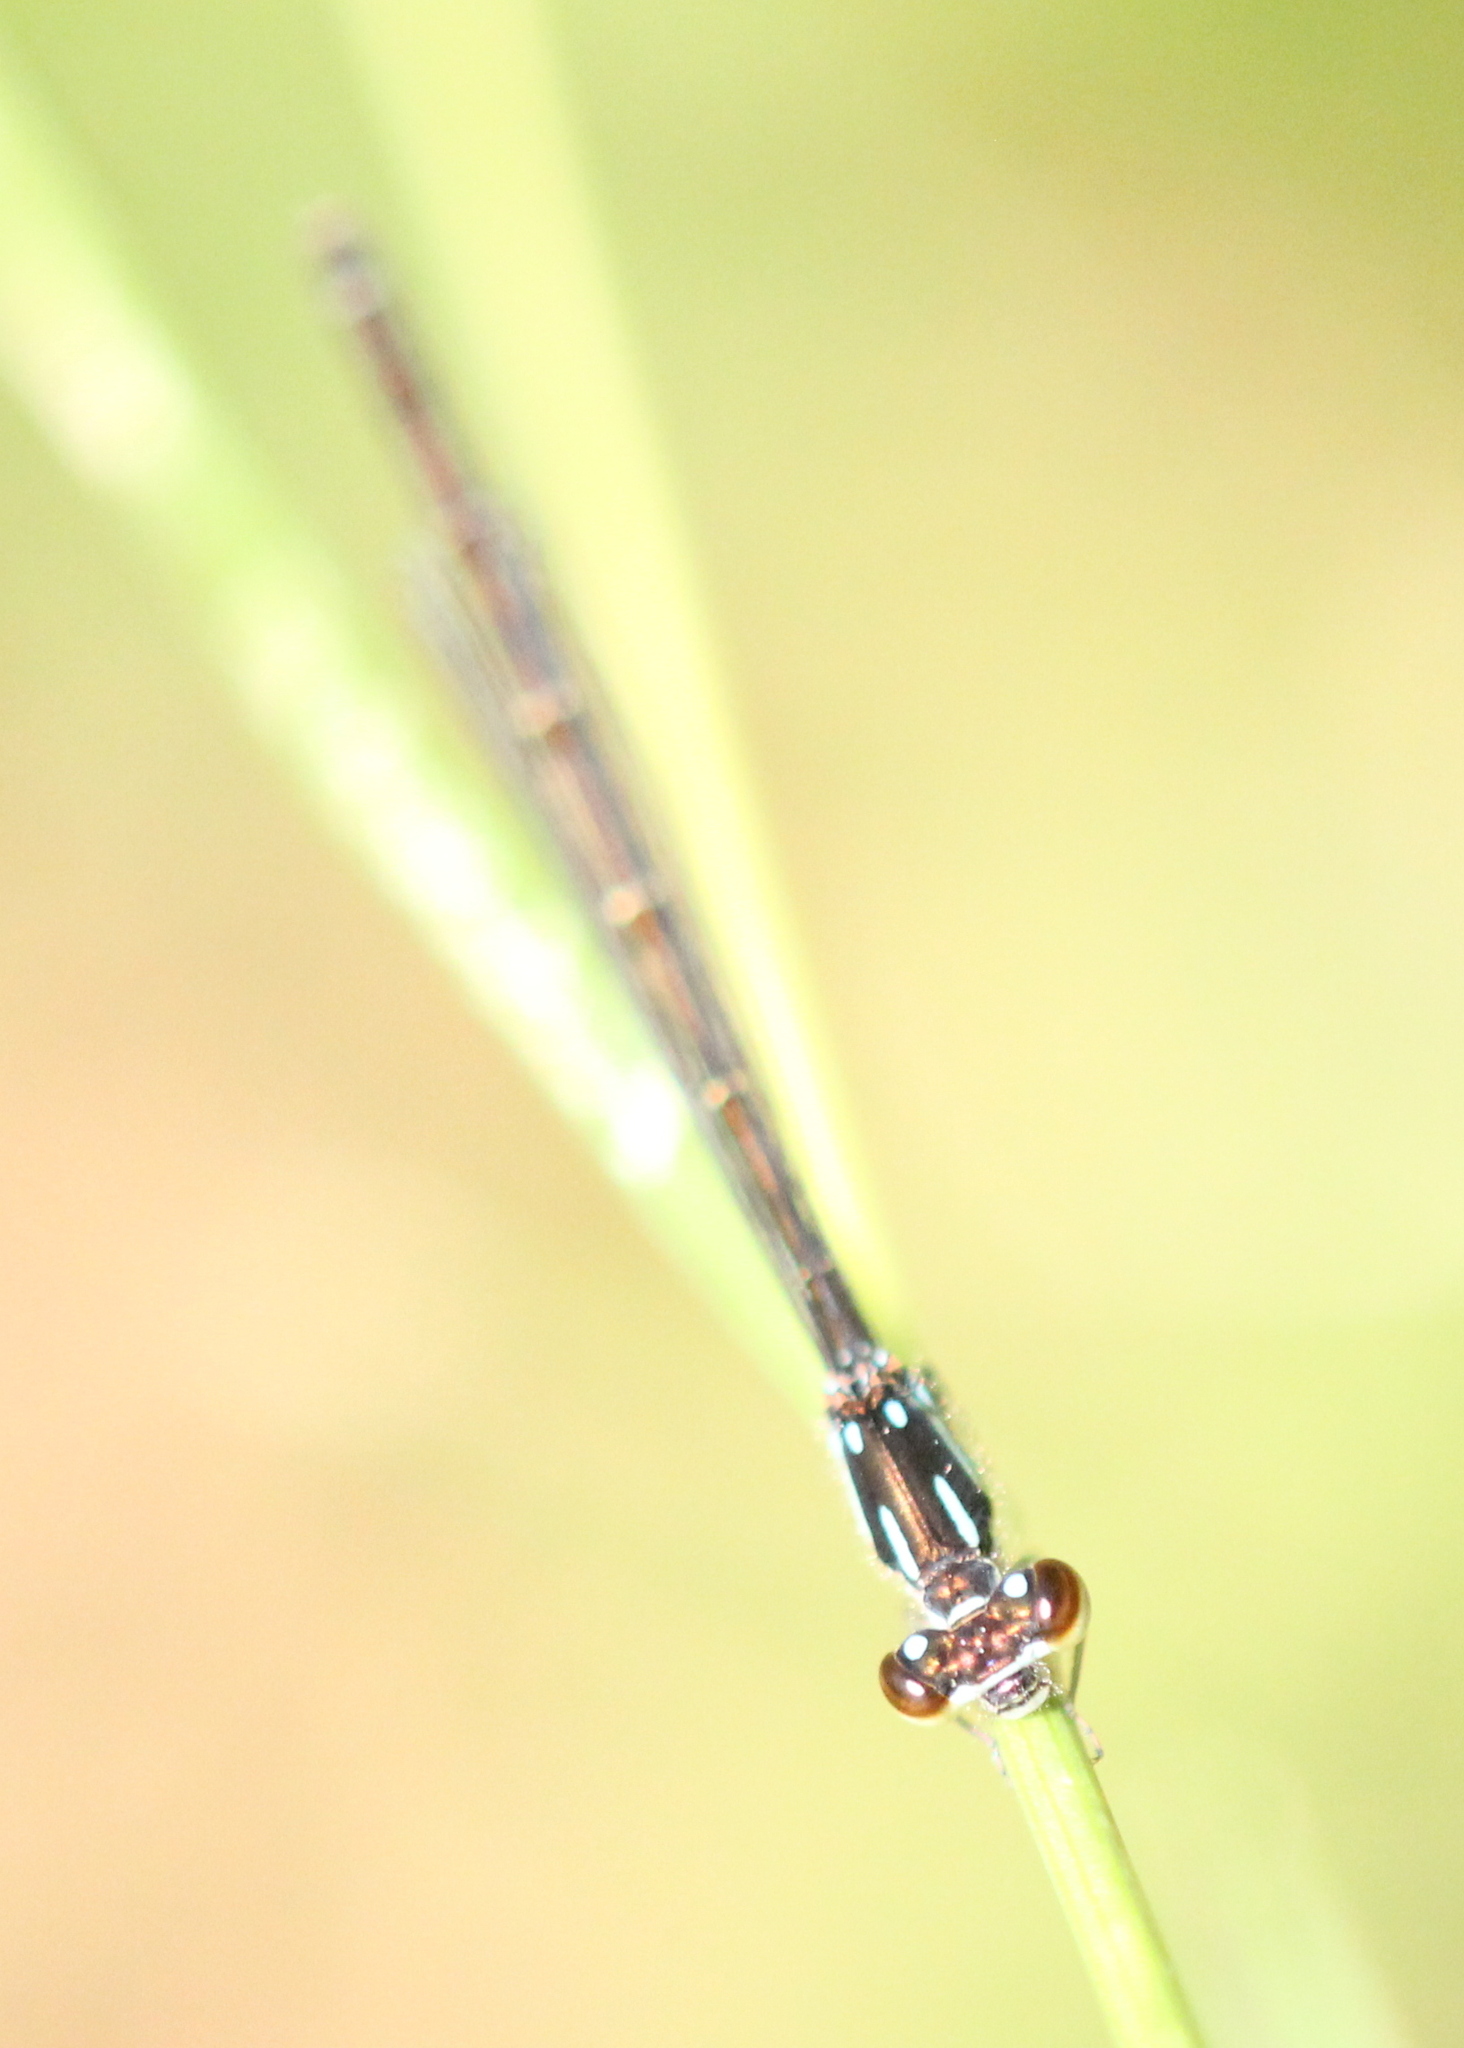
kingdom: Animalia
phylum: Arthropoda
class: Insecta
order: Odonata
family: Coenagrionidae
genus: Ischnura
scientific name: Ischnura posita
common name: Fragile forktail
